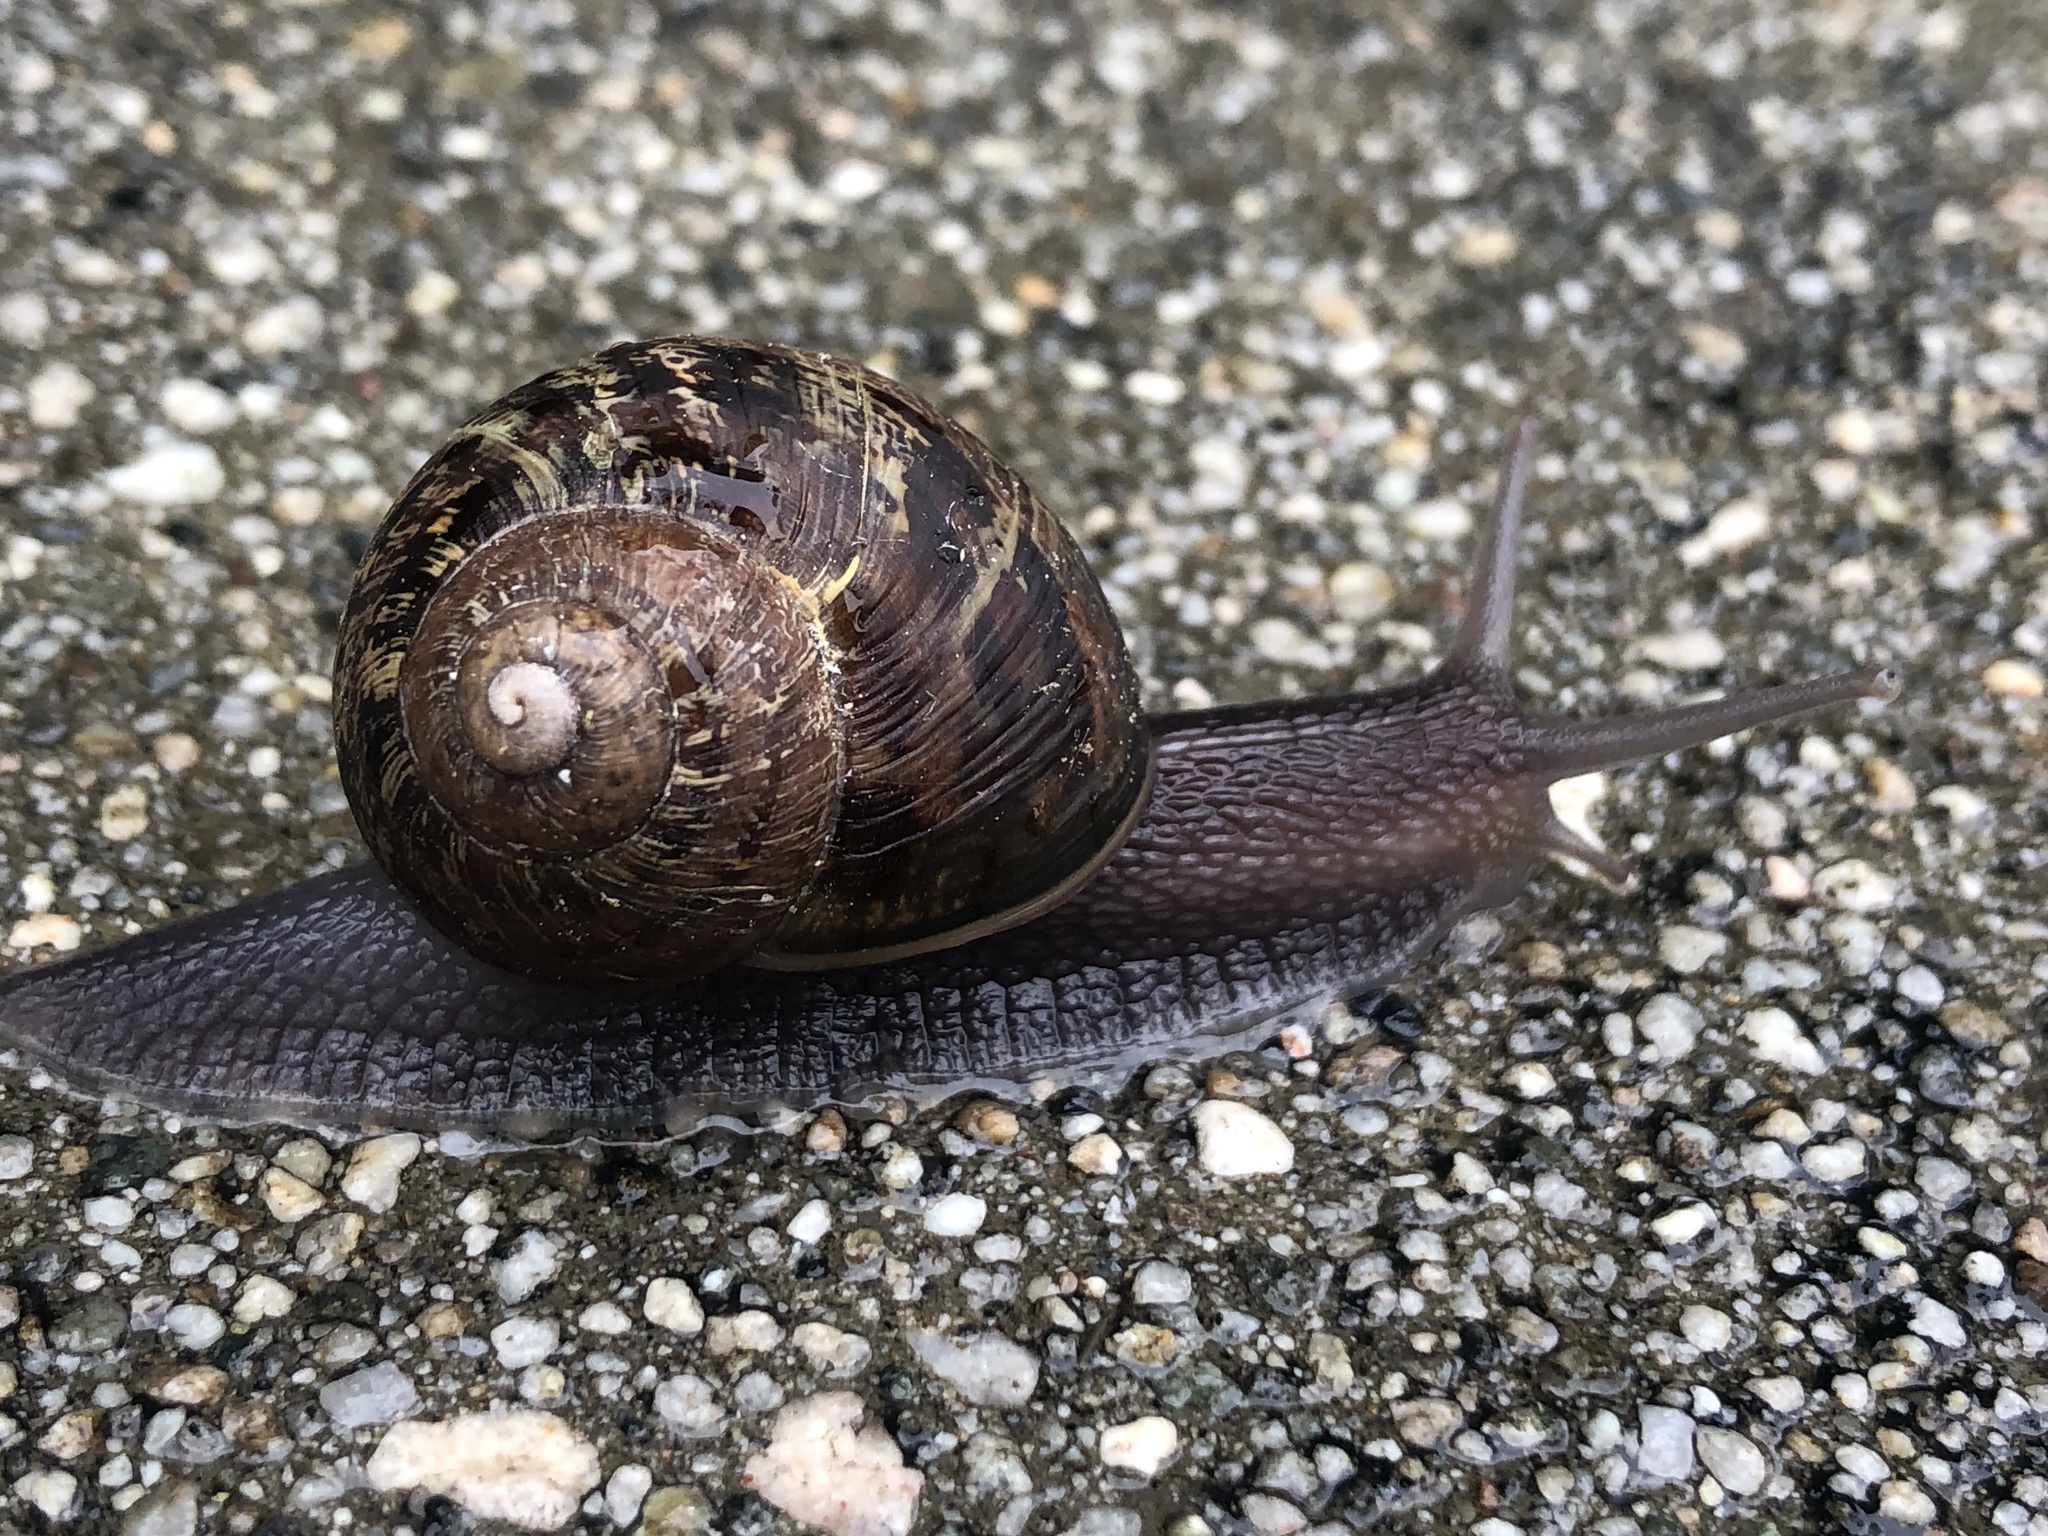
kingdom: Animalia
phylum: Mollusca
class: Gastropoda
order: Stylommatophora
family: Helicidae
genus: Cornu
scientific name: Cornu aspersum
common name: Brown garden snail
